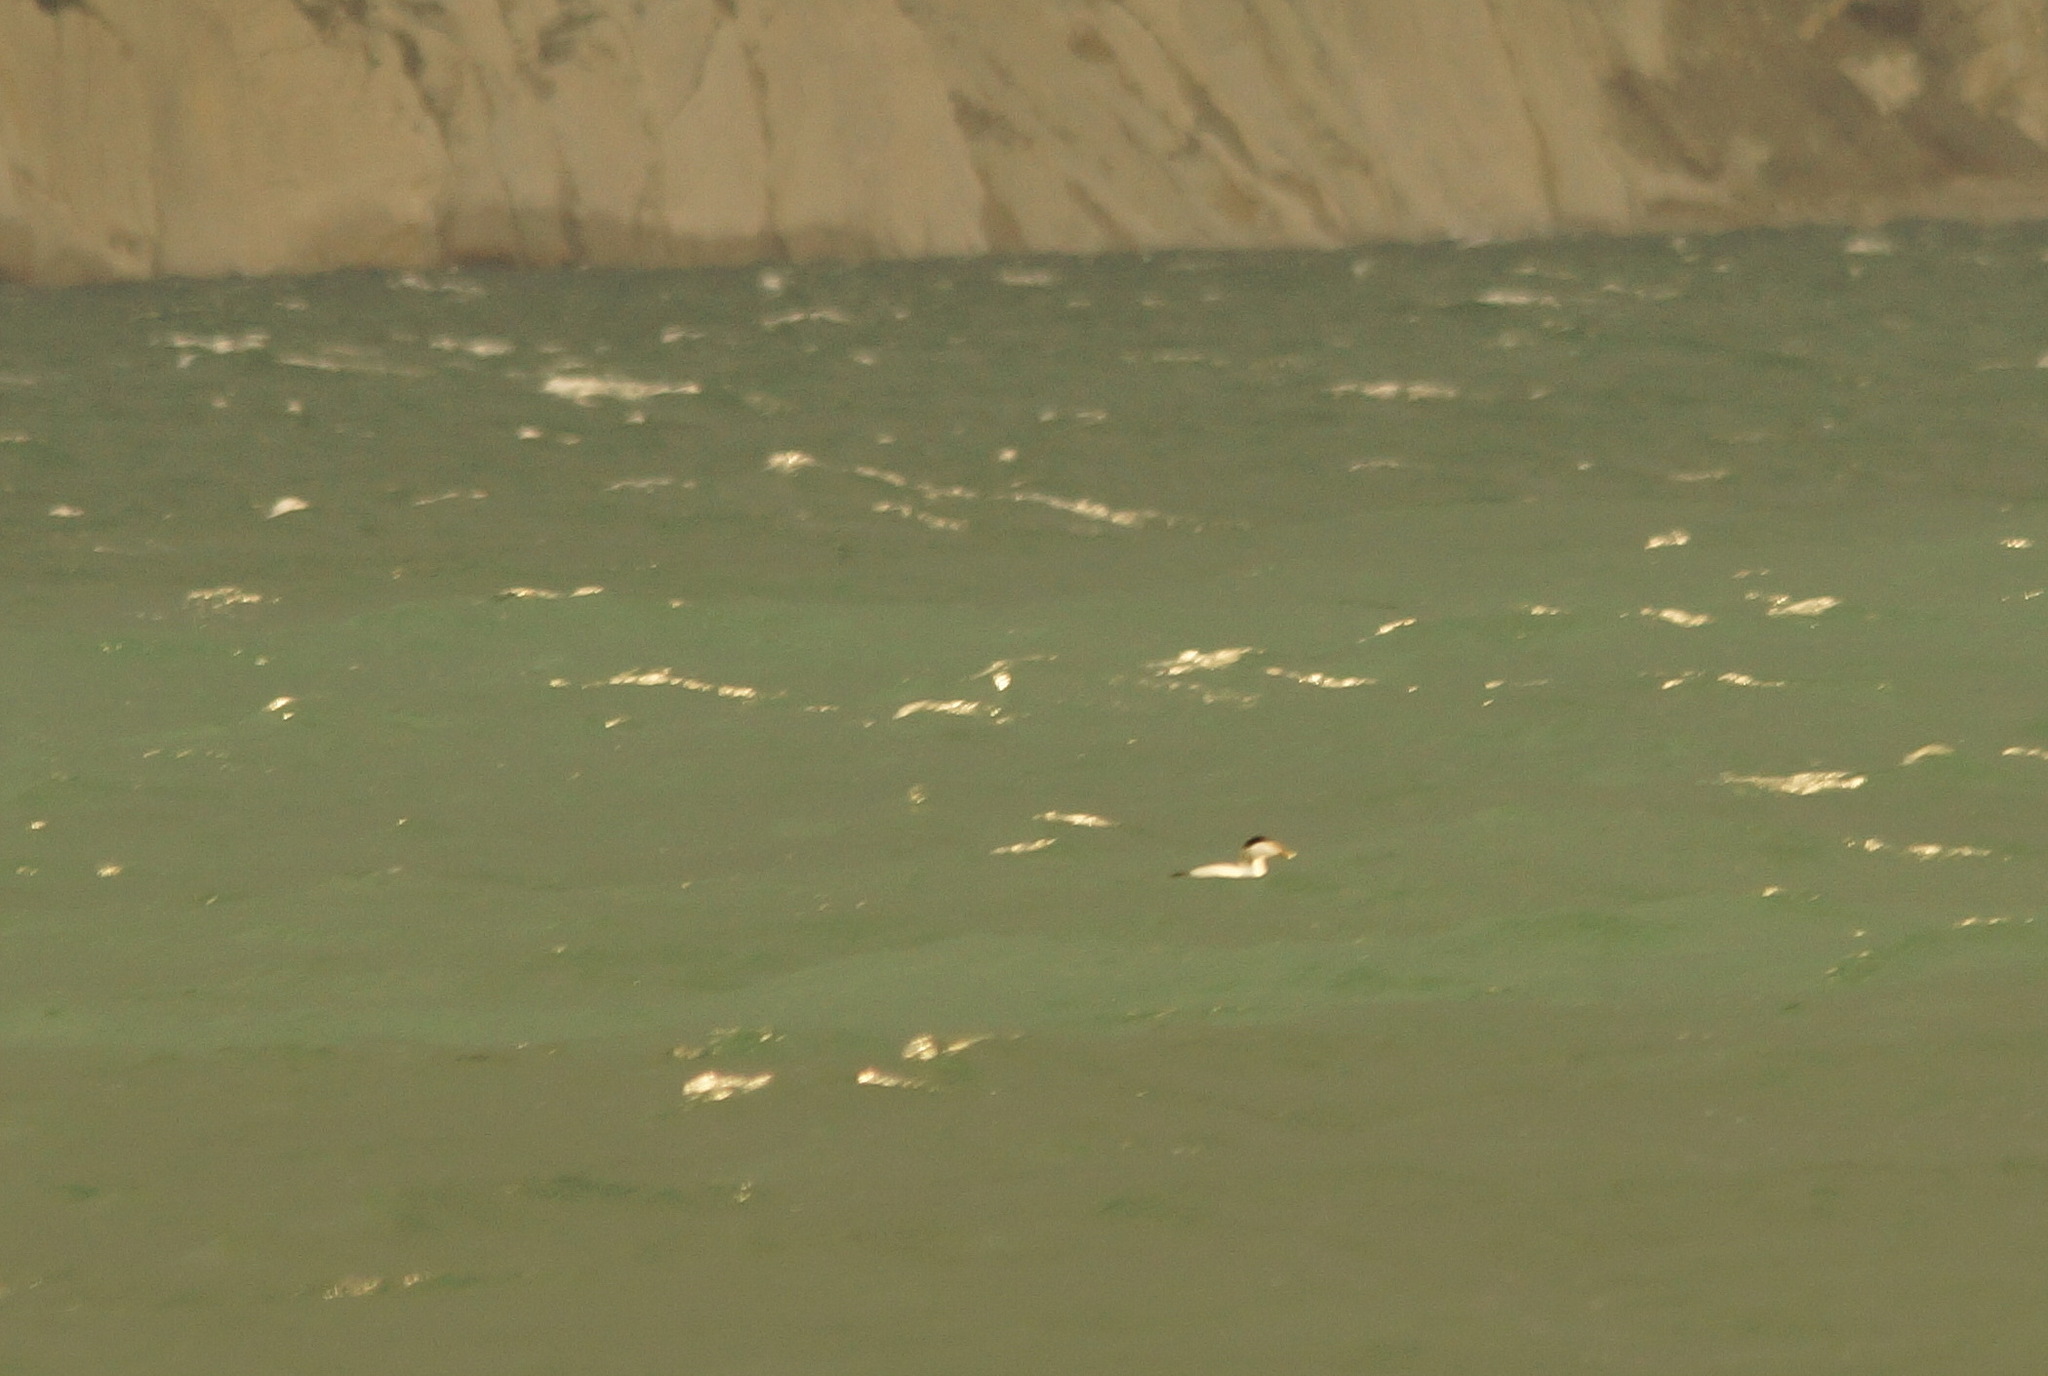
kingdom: Animalia
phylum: Chordata
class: Aves
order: Anseriformes
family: Anatidae
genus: Somateria
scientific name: Somateria mollissima
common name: Common eider
